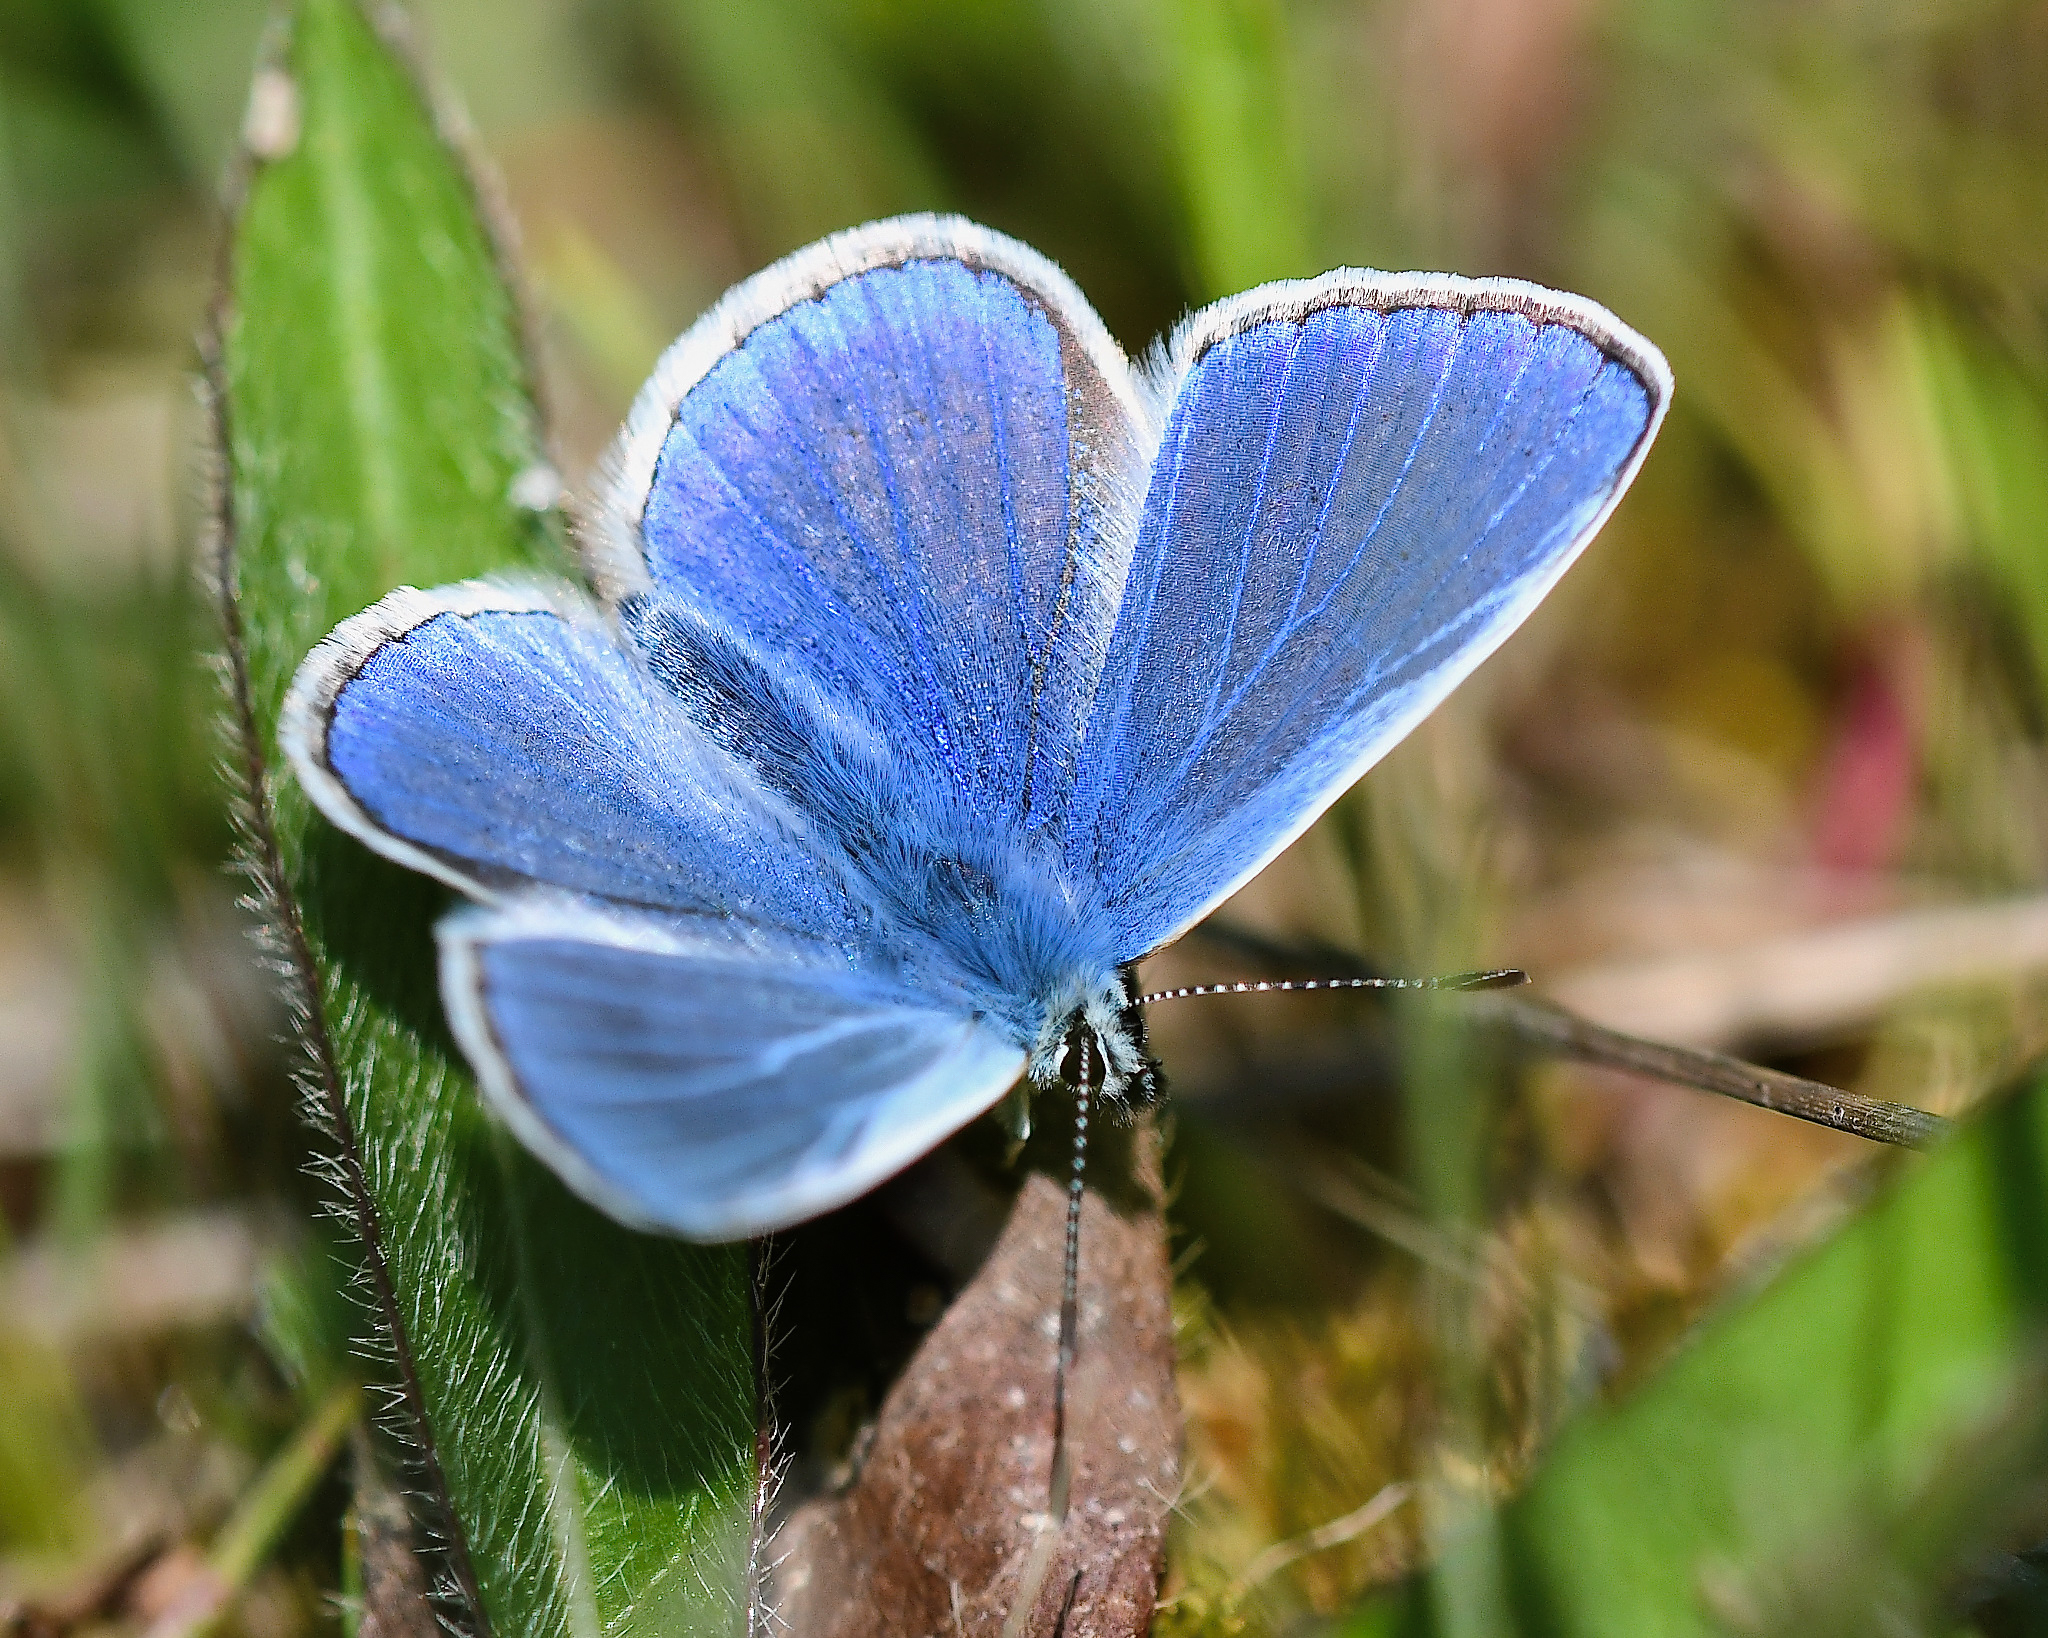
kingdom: Animalia
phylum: Arthropoda
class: Insecta
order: Lepidoptera
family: Lycaenidae
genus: Polyommatus
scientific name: Polyommatus icarus
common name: Common blue
